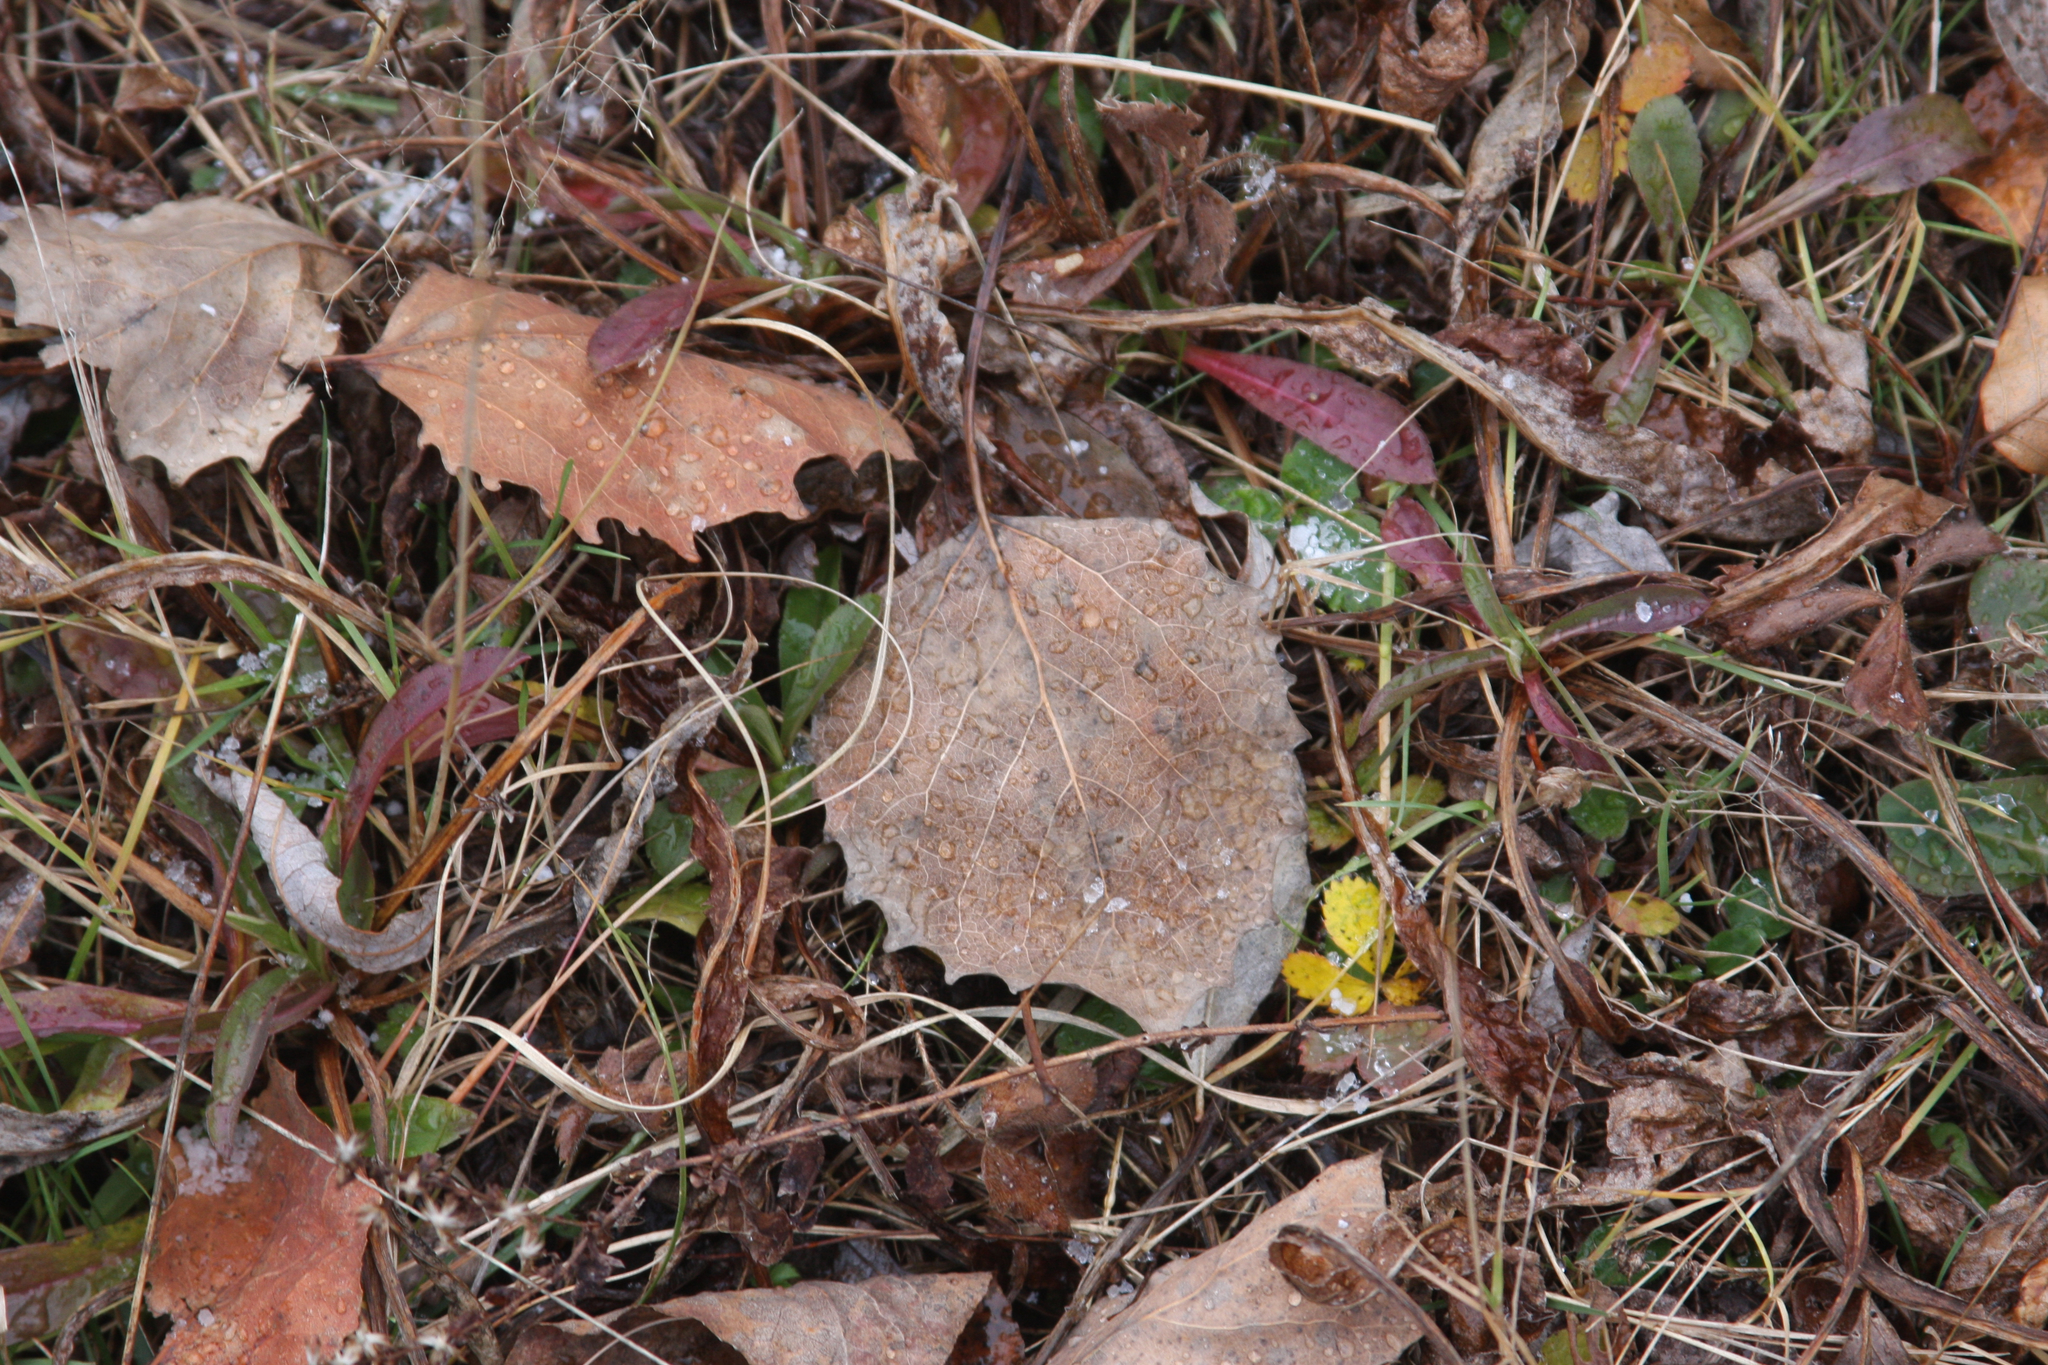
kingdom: Plantae
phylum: Tracheophyta
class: Magnoliopsida
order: Malpighiales
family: Salicaceae
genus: Populus
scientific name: Populus grandidentata
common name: Bigtooth aspen
